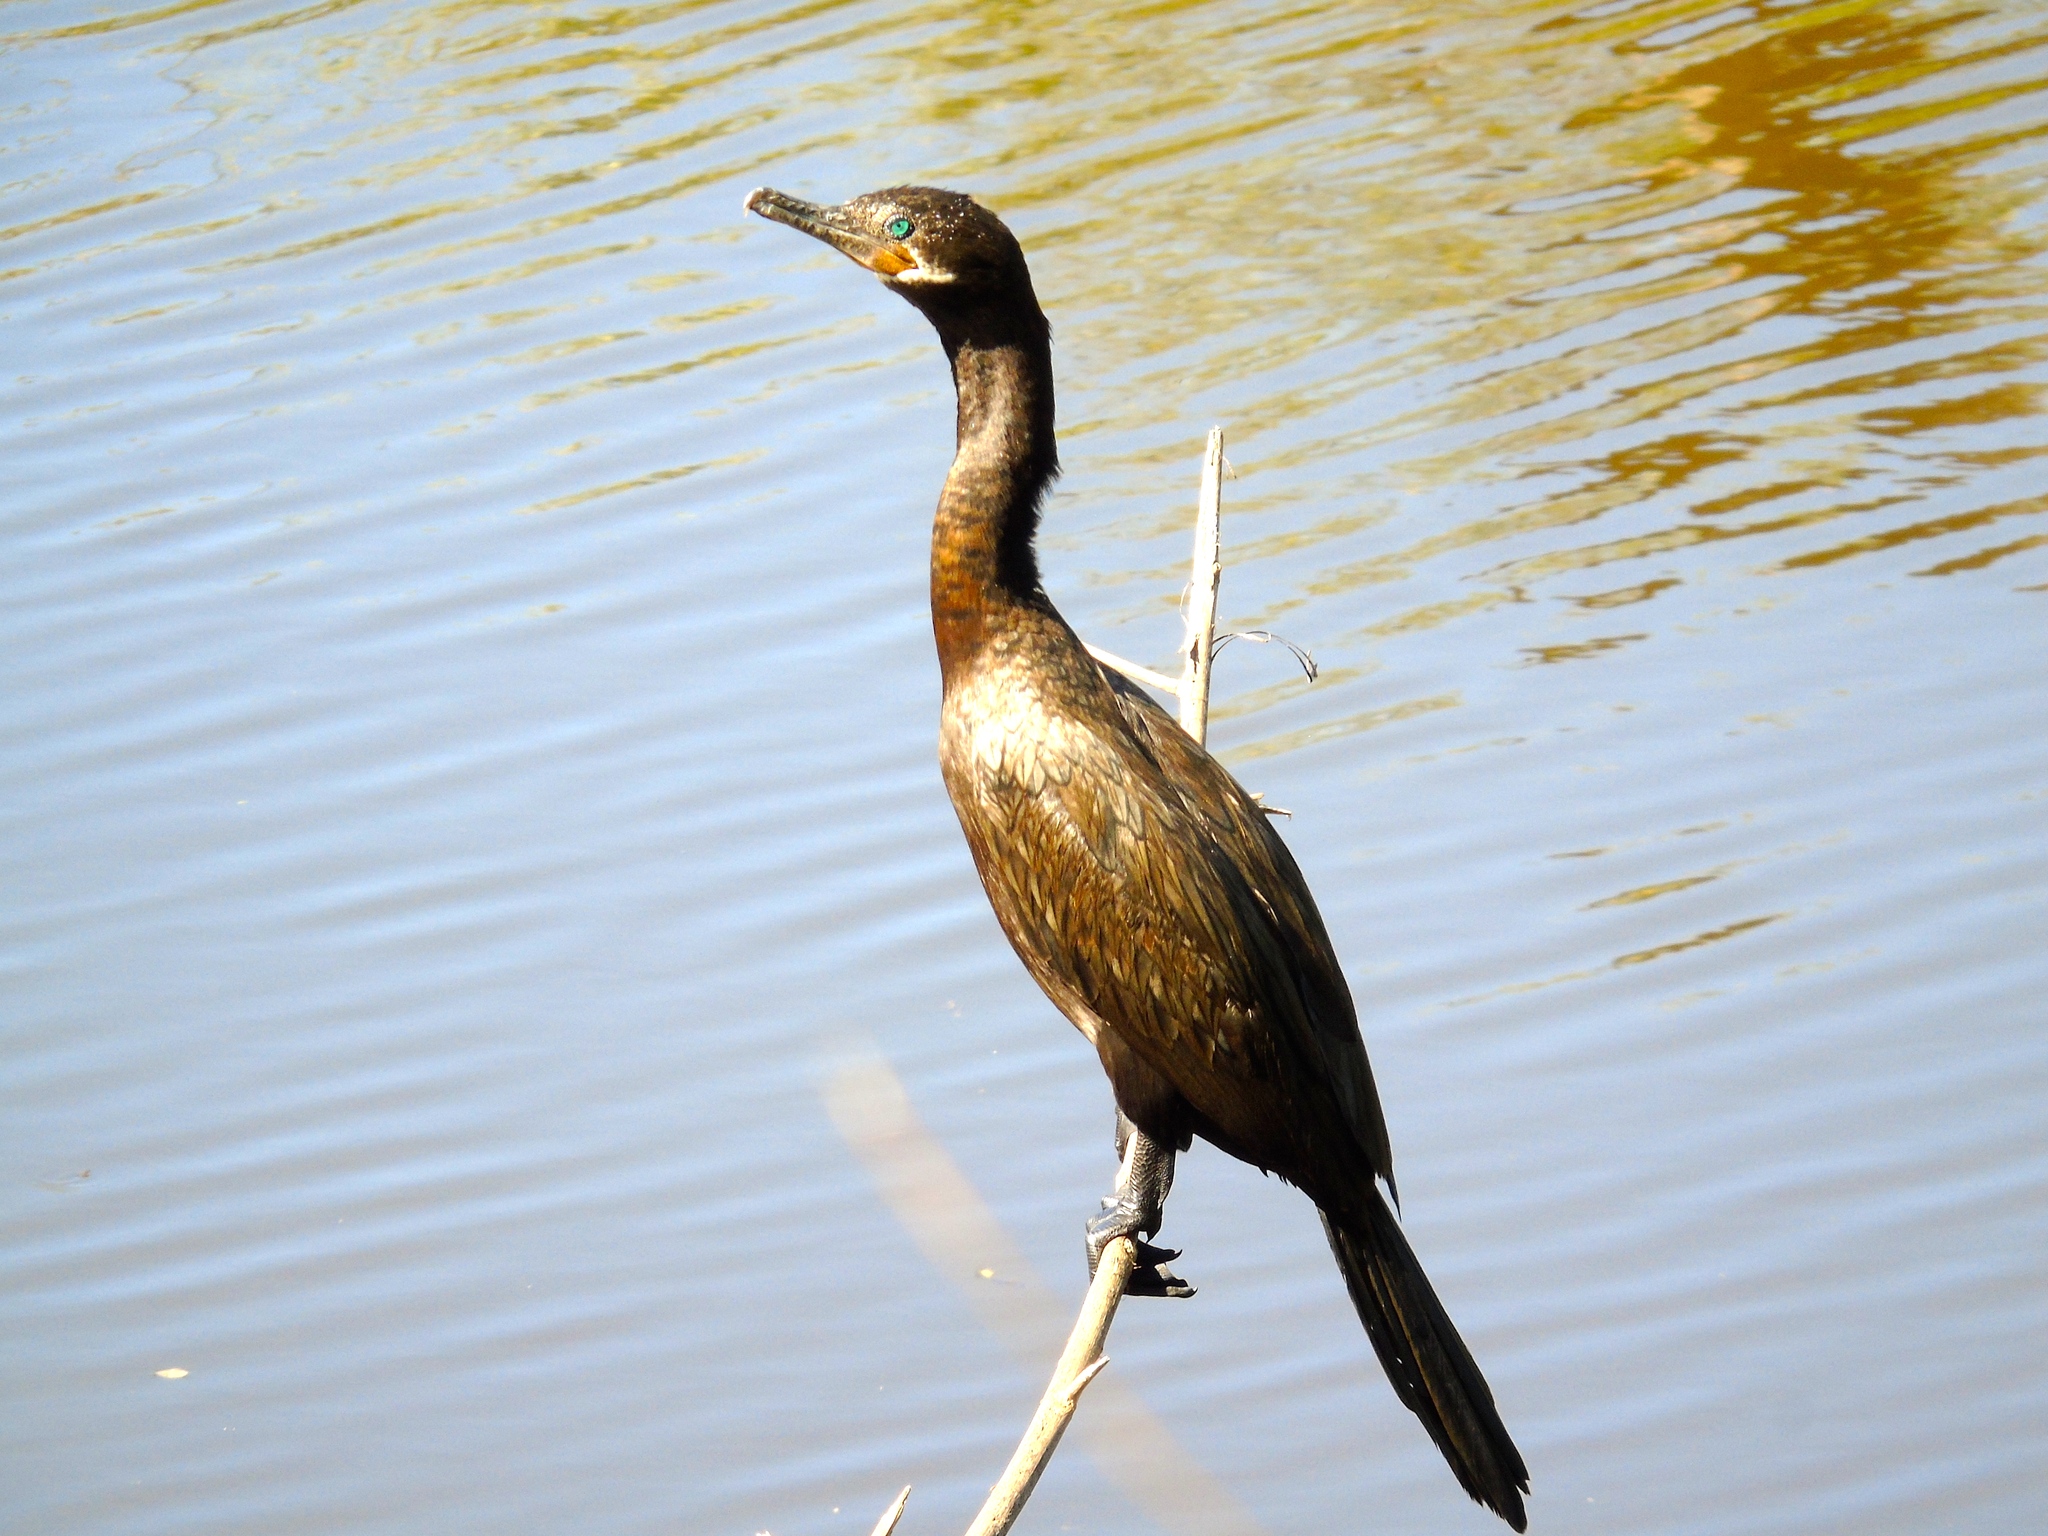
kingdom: Animalia
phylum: Chordata
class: Aves
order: Suliformes
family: Phalacrocoracidae
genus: Phalacrocorax
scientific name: Phalacrocorax brasilianus
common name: Neotropic cormorant
